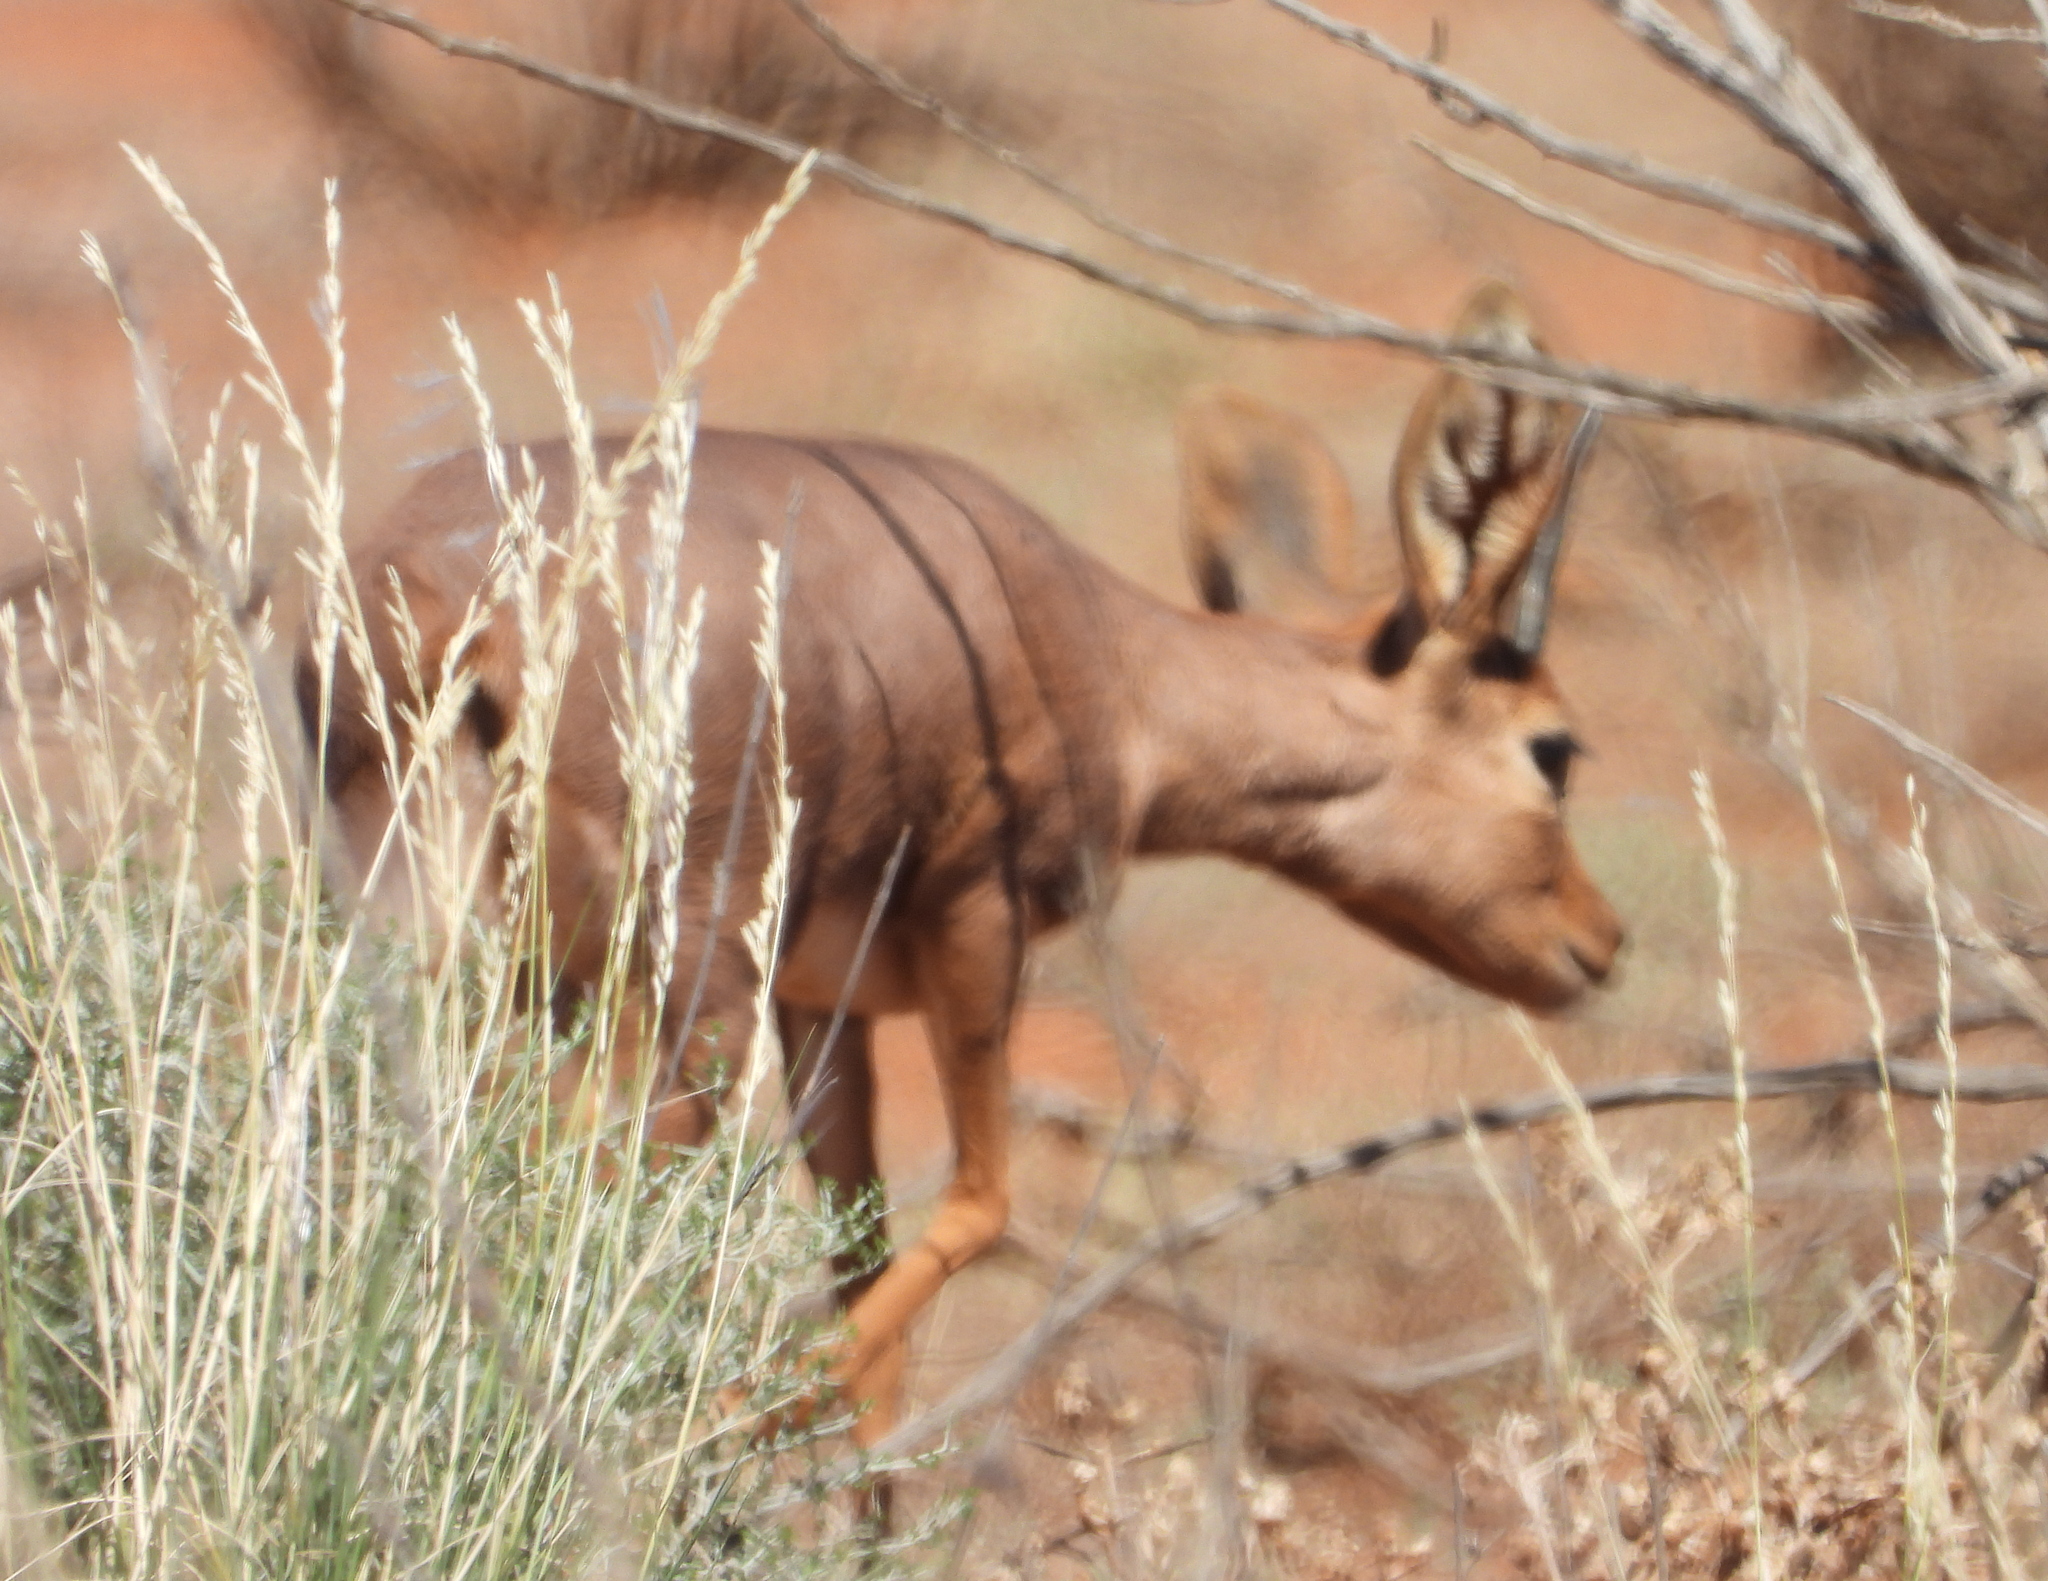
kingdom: Animalia
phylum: Chordata
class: Mammalia
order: Artiodactyla
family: Bovidae
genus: Raphicerus
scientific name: Raphicerus campestris
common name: Steenbok
